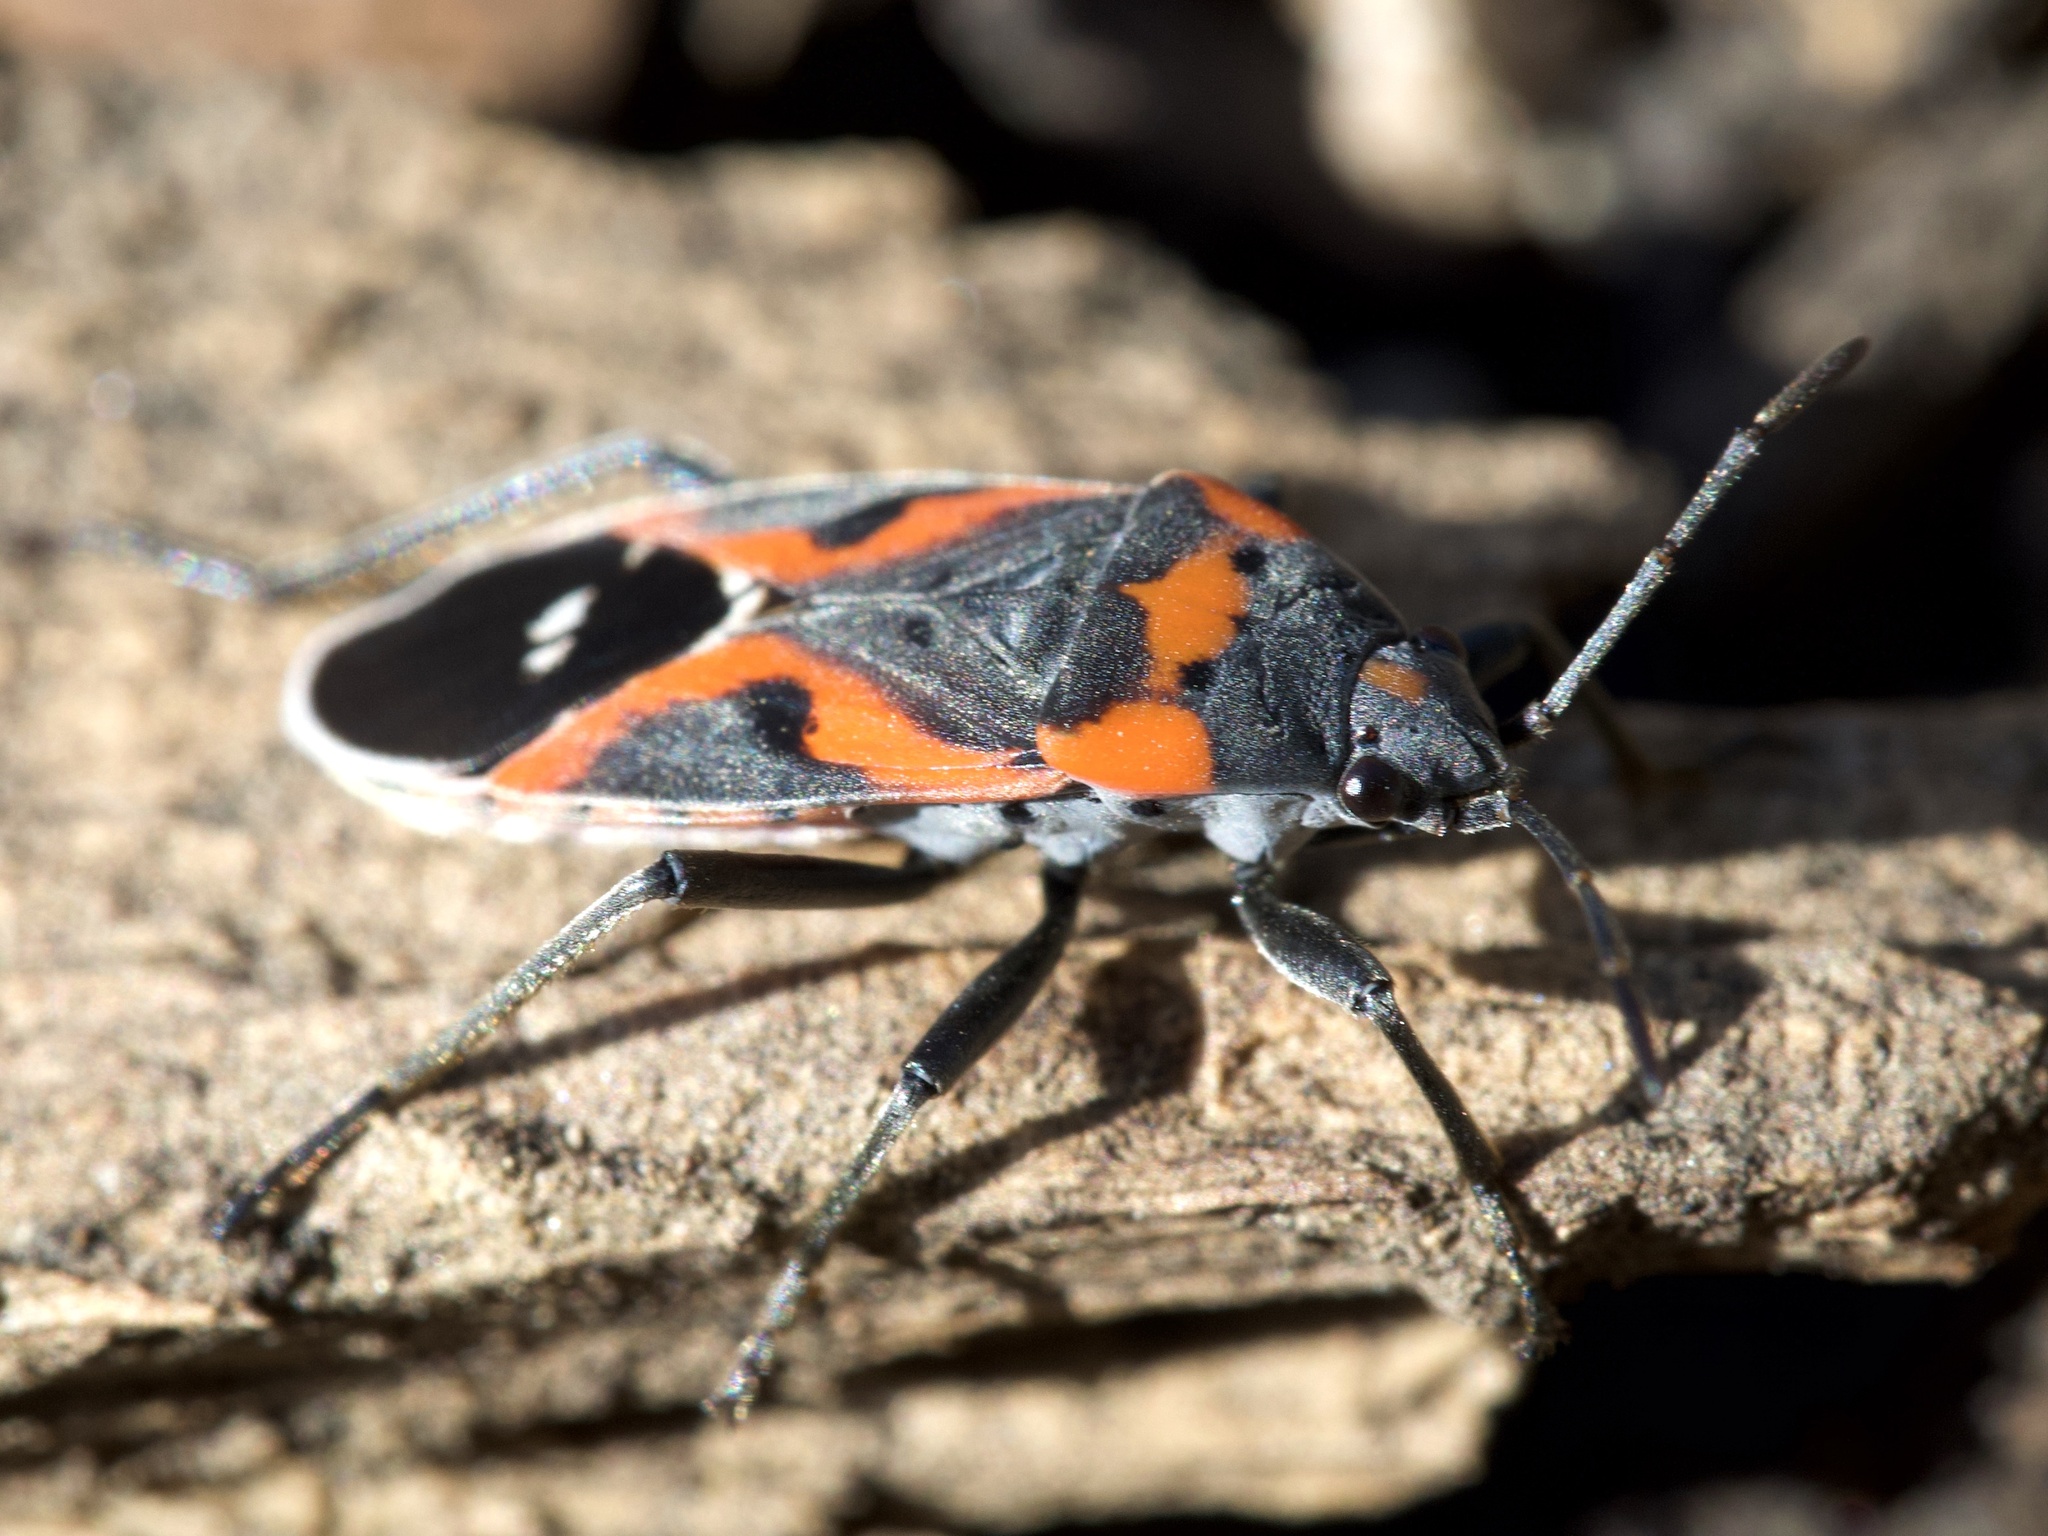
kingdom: Animalia
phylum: Arthropoda
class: Insecta
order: Hemiptera
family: Lygaeidae
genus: Lygaeus
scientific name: Lygaeus kalmii
